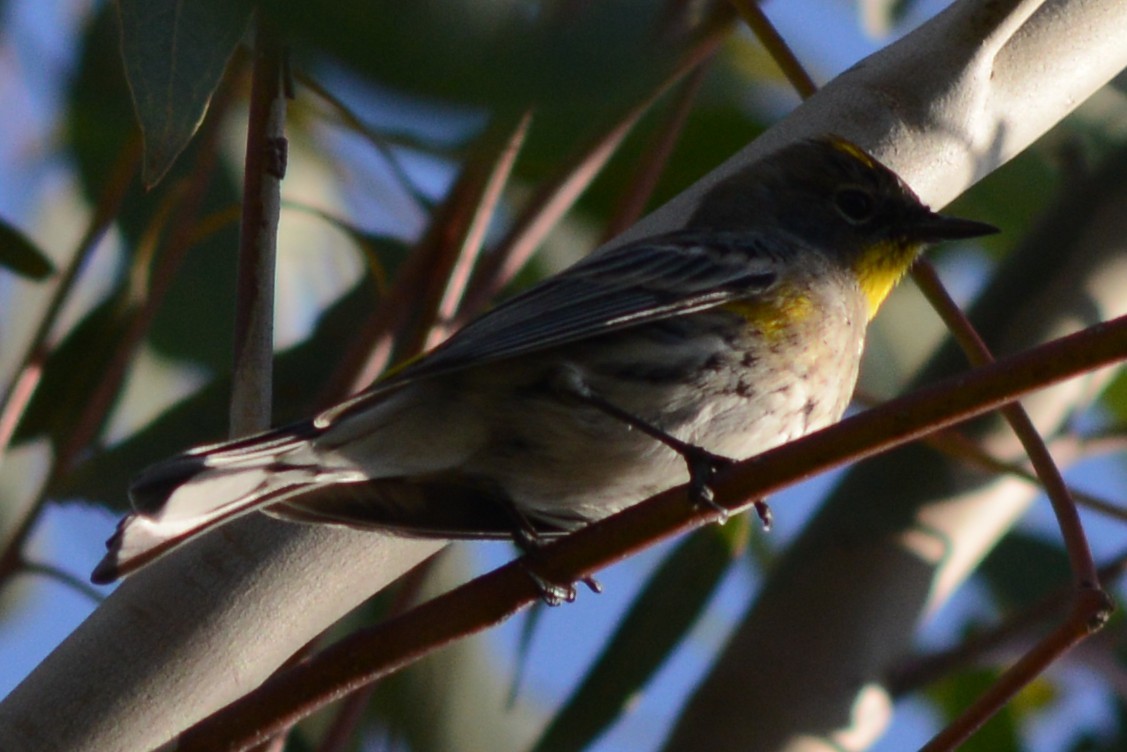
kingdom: Animalia
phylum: Chordata
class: Aves
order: Passeriformes
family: Parulidae
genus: Setophaga
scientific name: Setophaga auduboni
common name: Audubon's warbler
